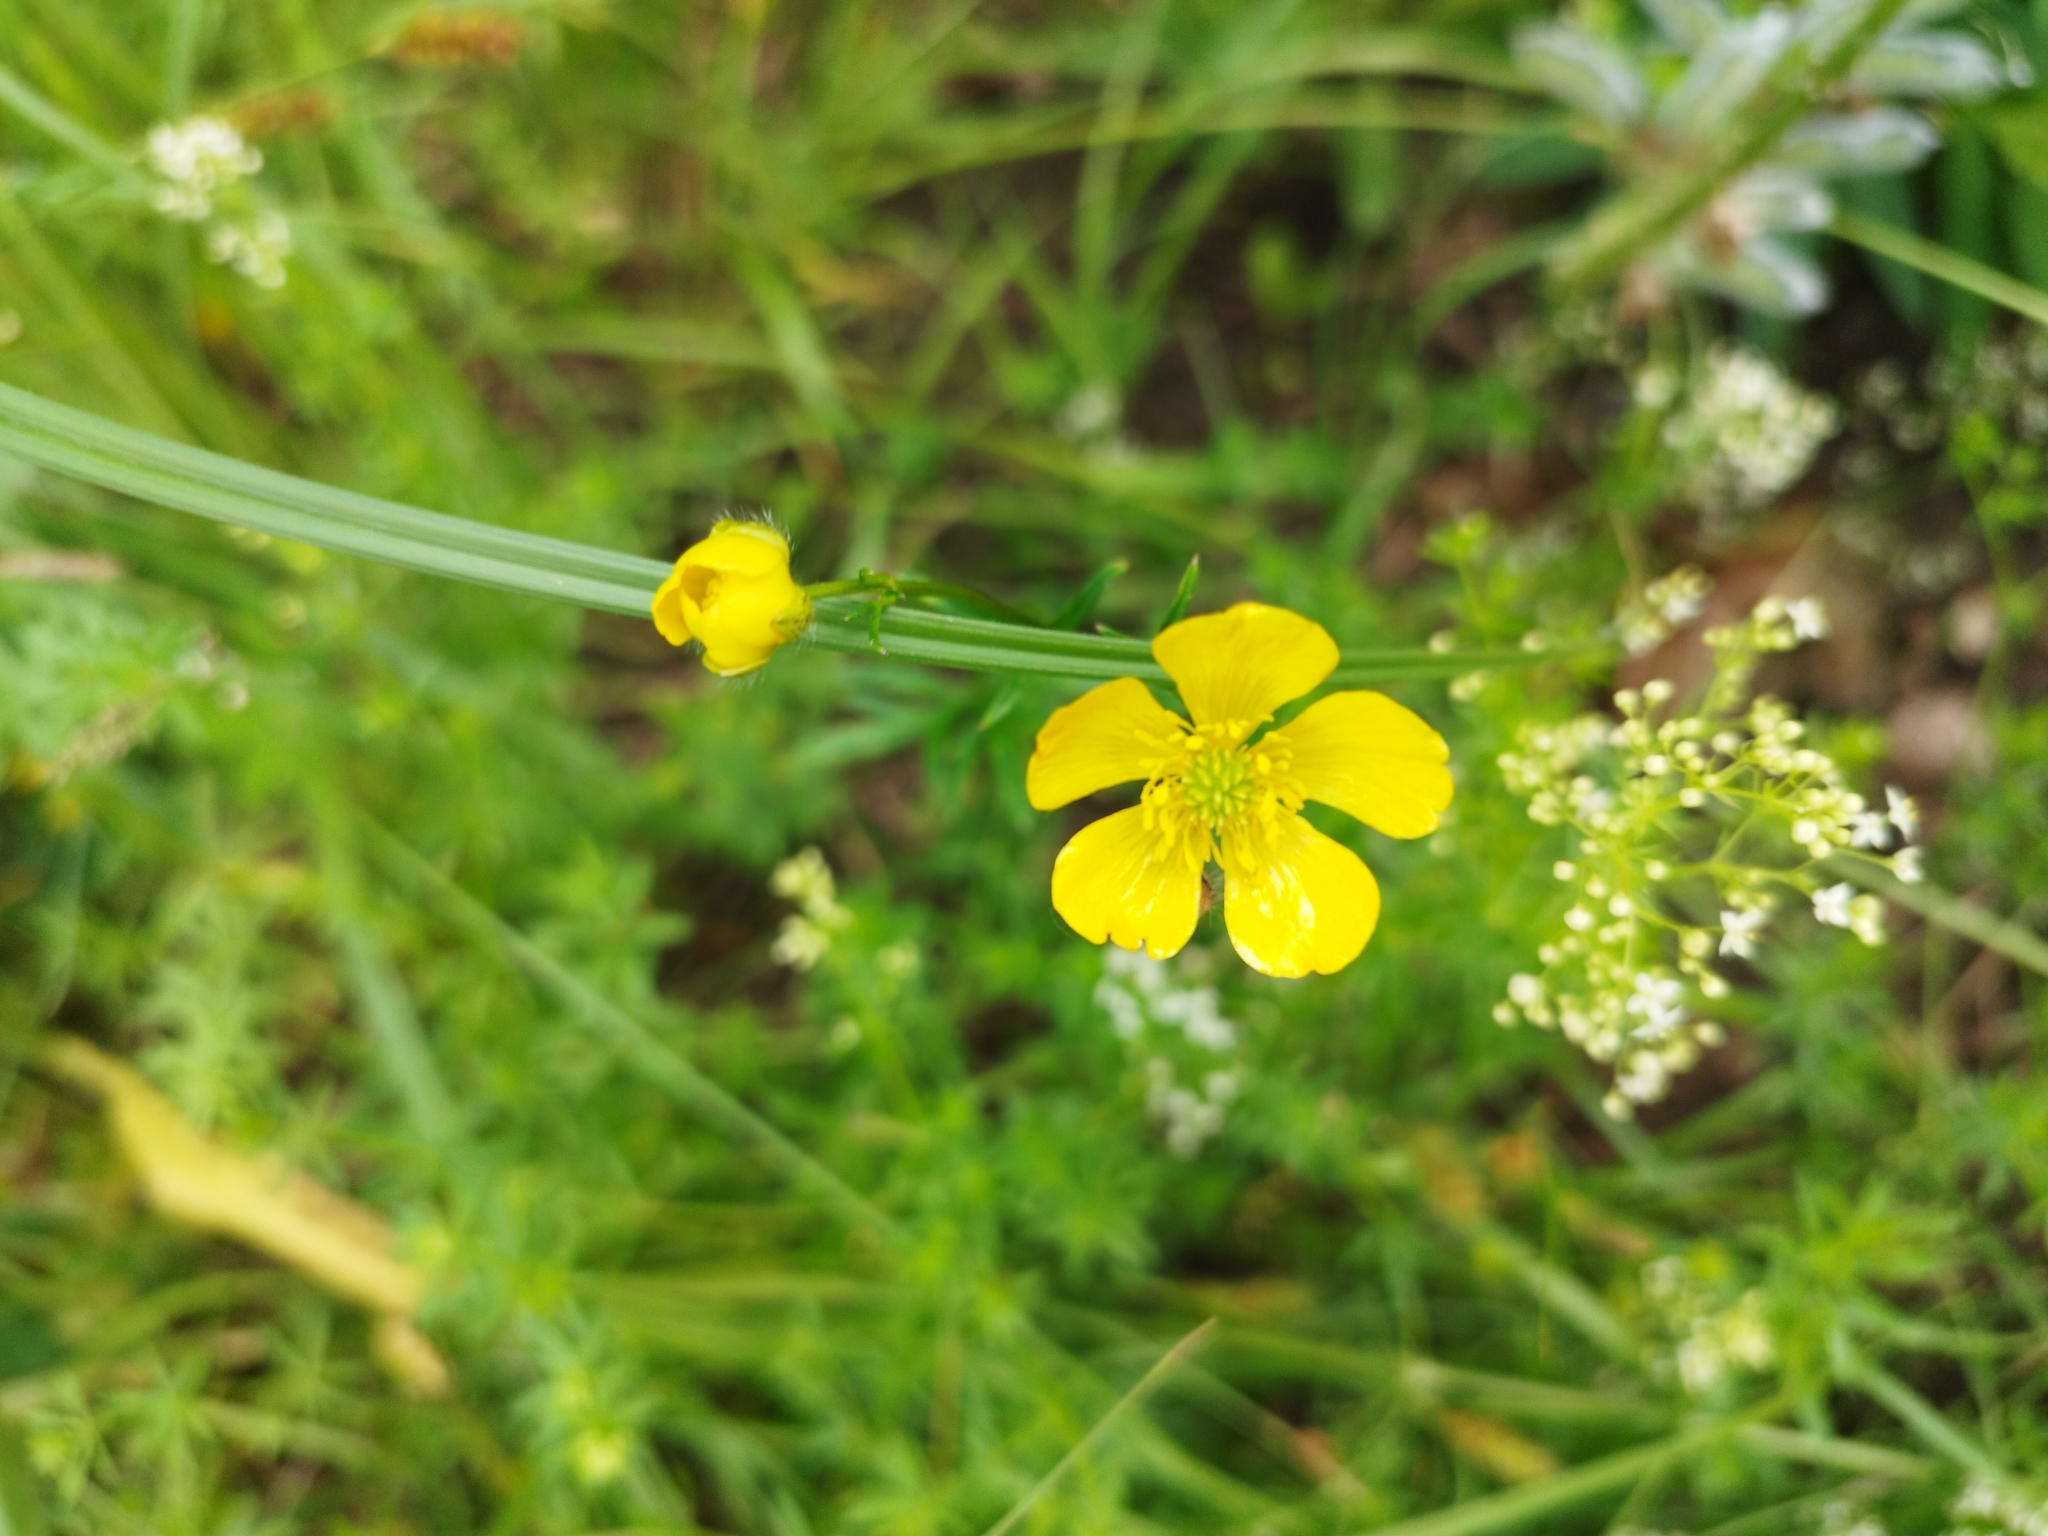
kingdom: Plantae
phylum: Tracheophyta
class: Magnoliopsida
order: Ranunculales
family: Ranunculaceae
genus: Ranunculus
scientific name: Ranunculus polyanthemos
